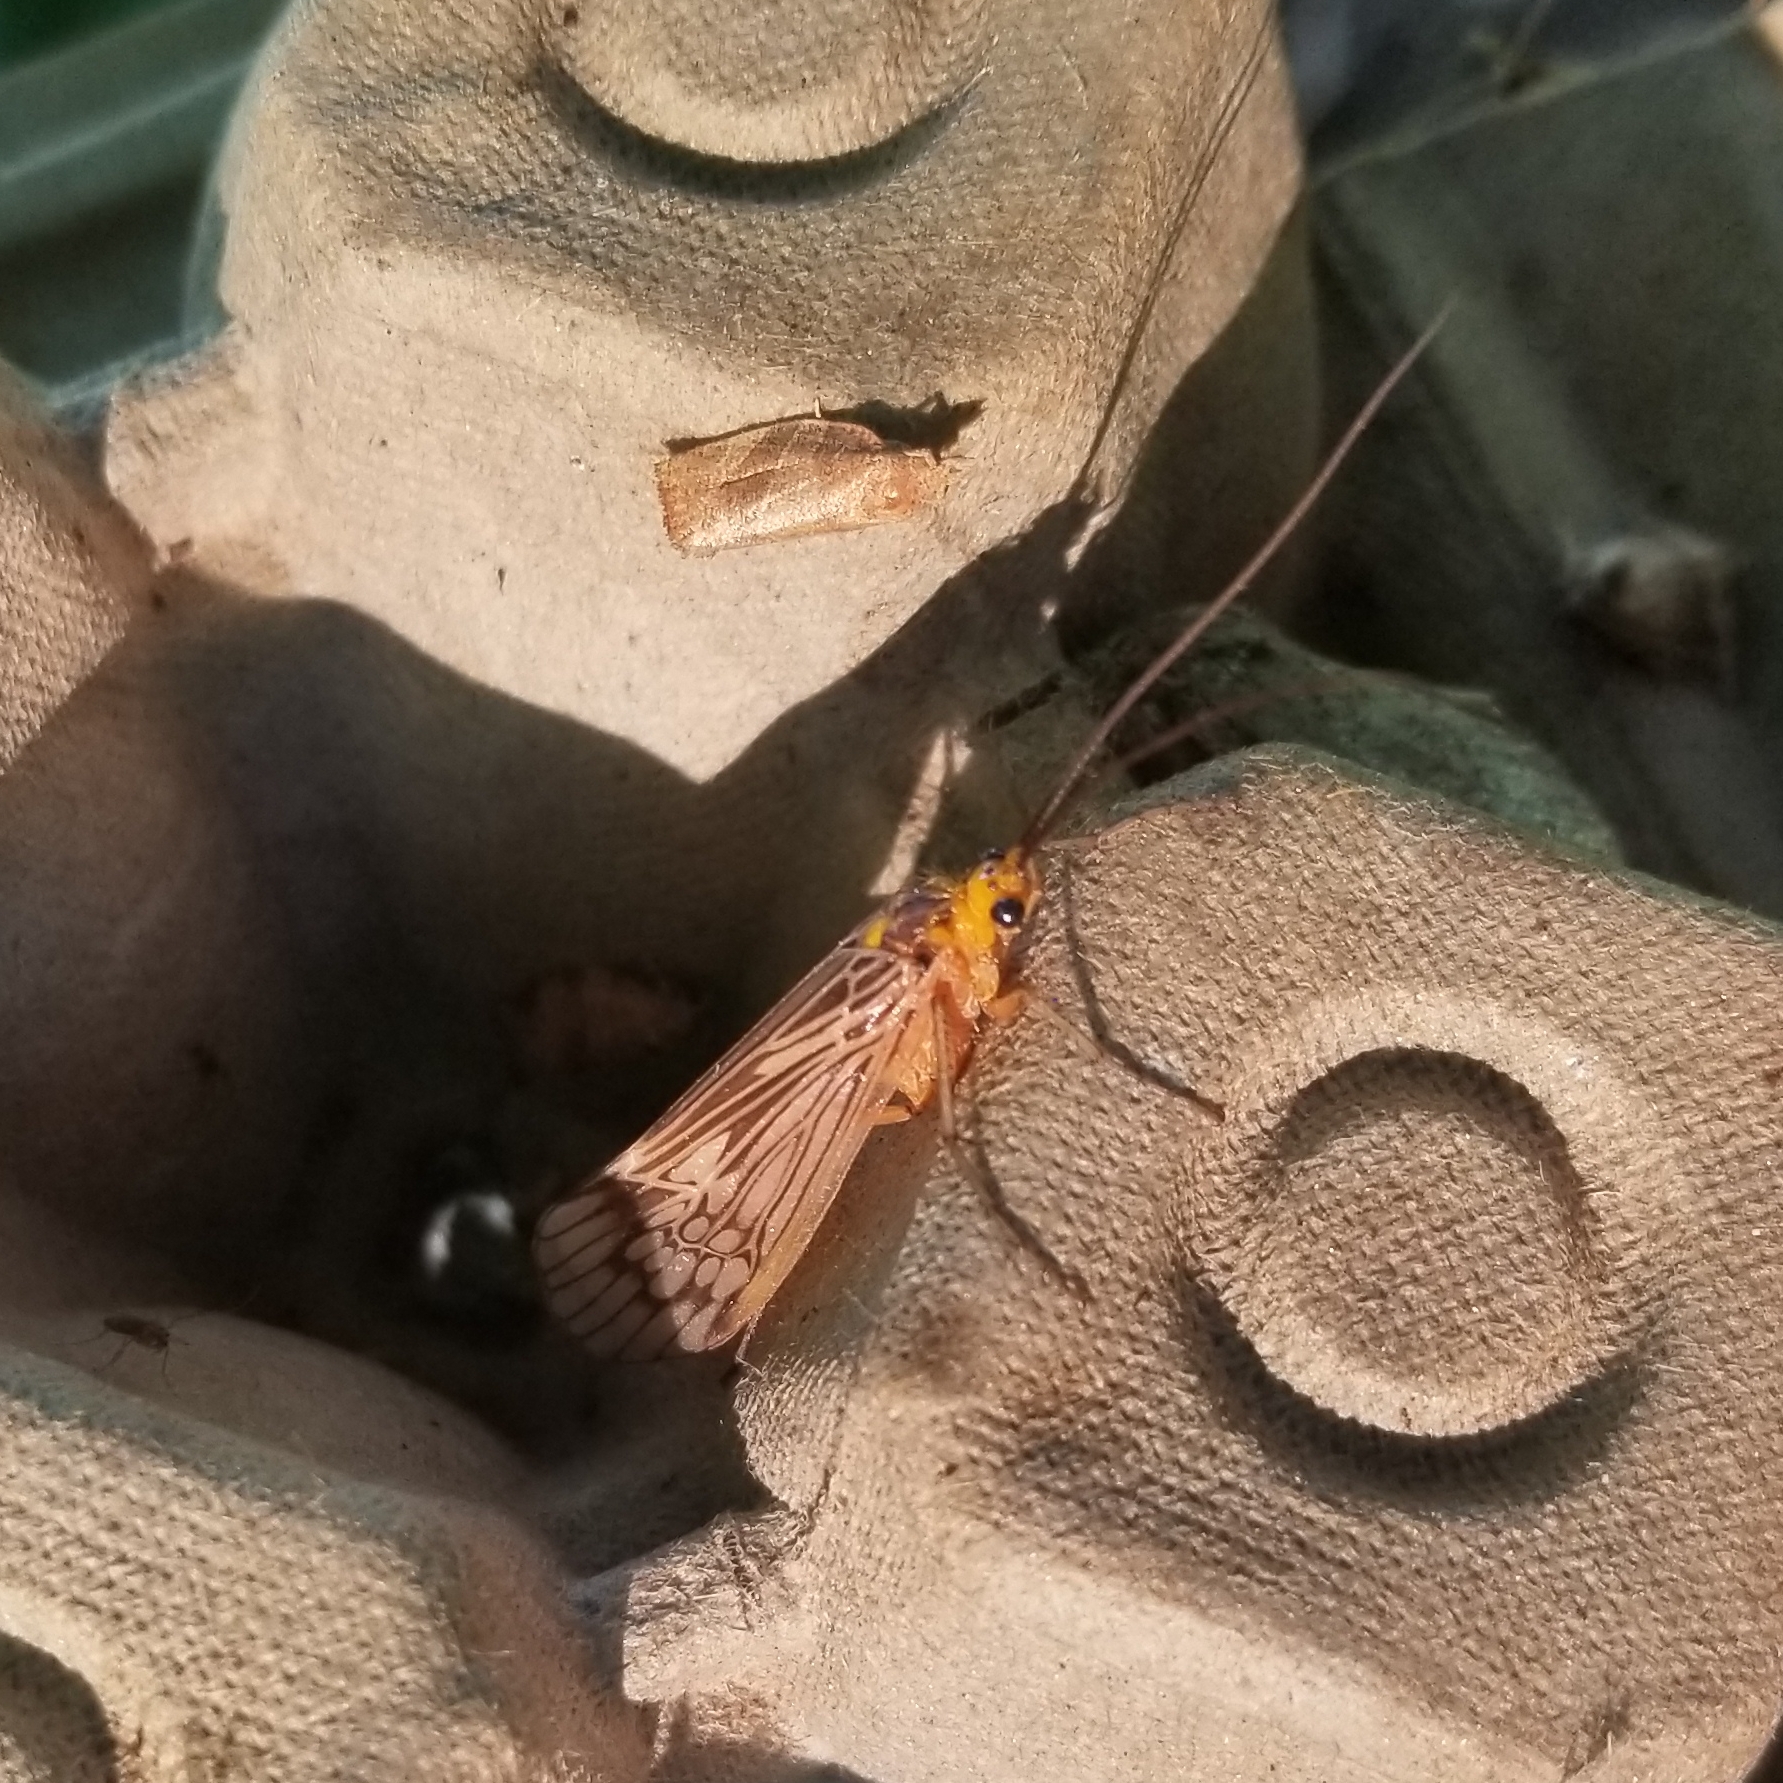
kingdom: Animalia
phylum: Arthropoda
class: Insecta
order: Trichoptera
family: Limnephilidae
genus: Hydatophylax
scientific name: Hydatophylax argus
